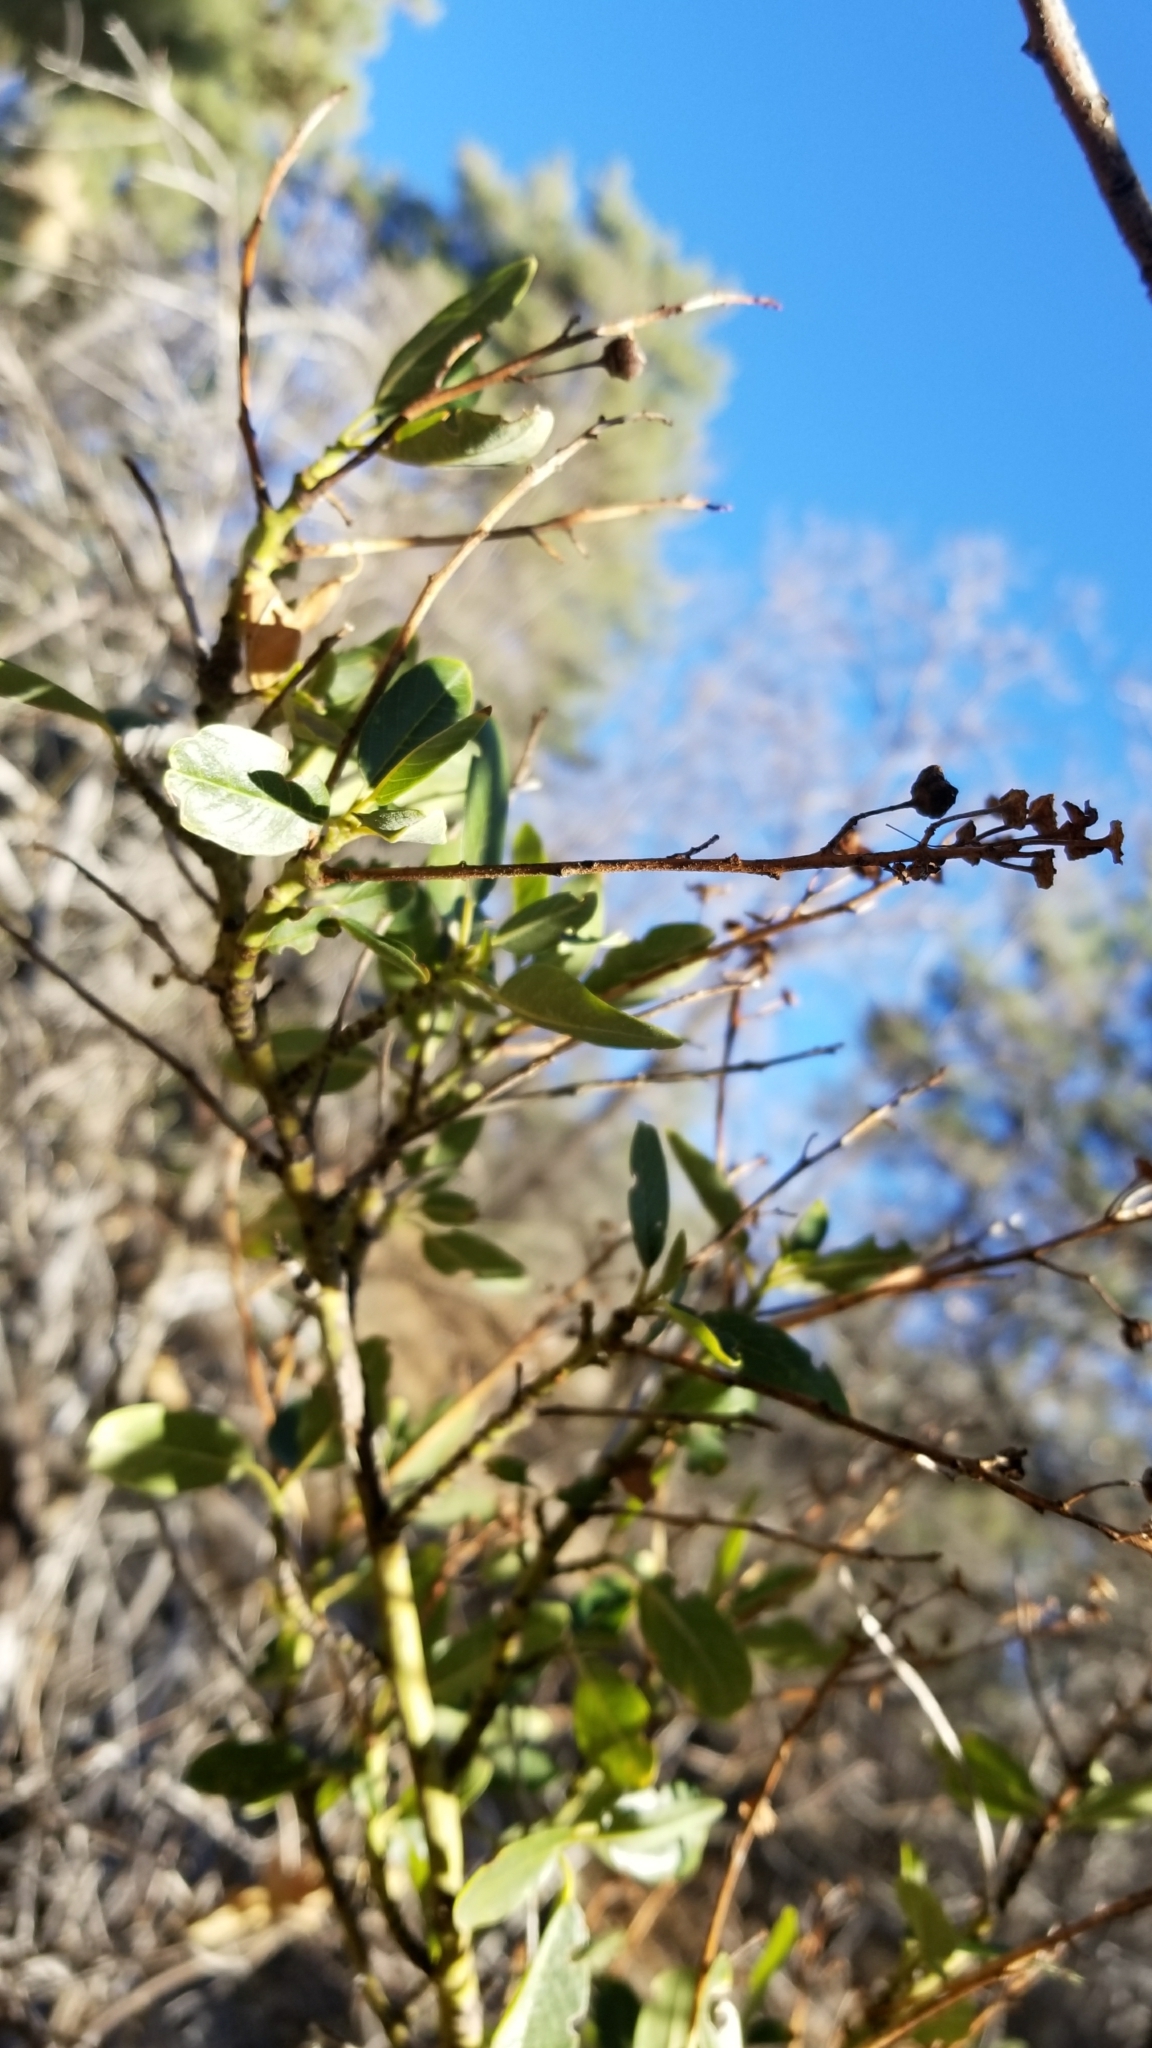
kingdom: Plantae
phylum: Tracheophyta
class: Magnoliopsida
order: Rosales
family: Rhamnaceae
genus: Ceanothus
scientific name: Ceanothus palmeri
